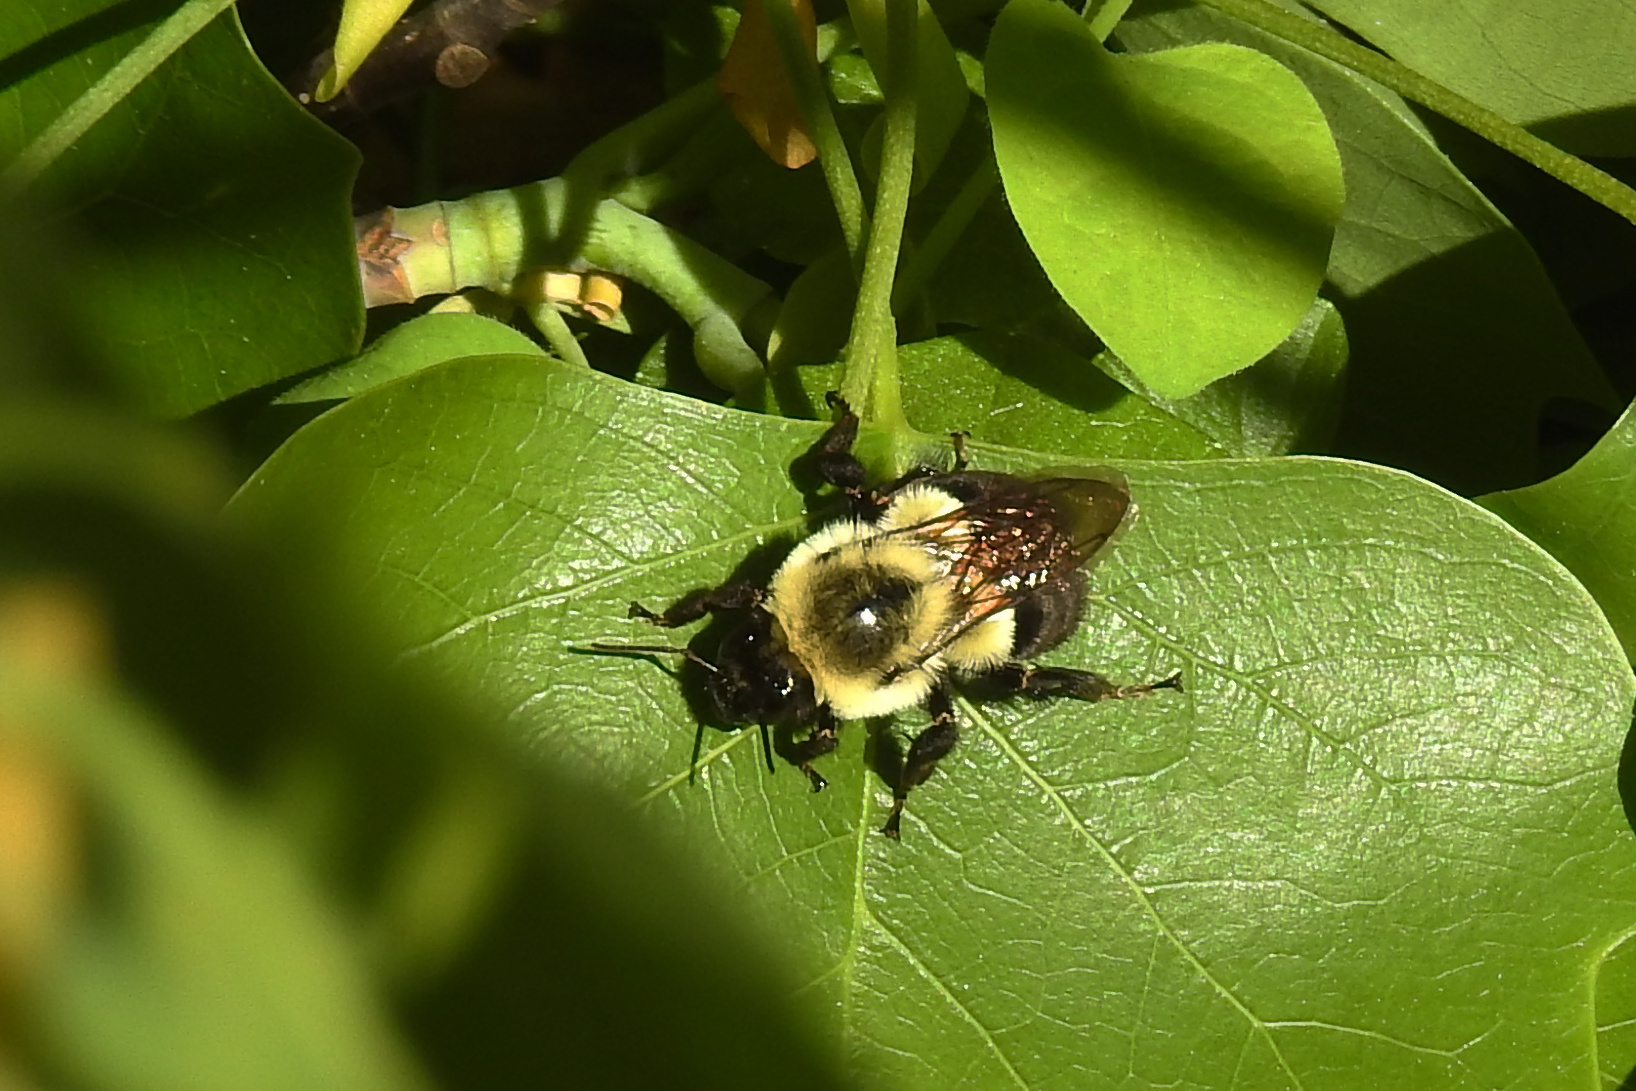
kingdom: Animalia
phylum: Arthropoda
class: Insecta
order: Hymenoptera
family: Apidae
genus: Bombus
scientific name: Bombus impatiens
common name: Common eastern bumble bee
